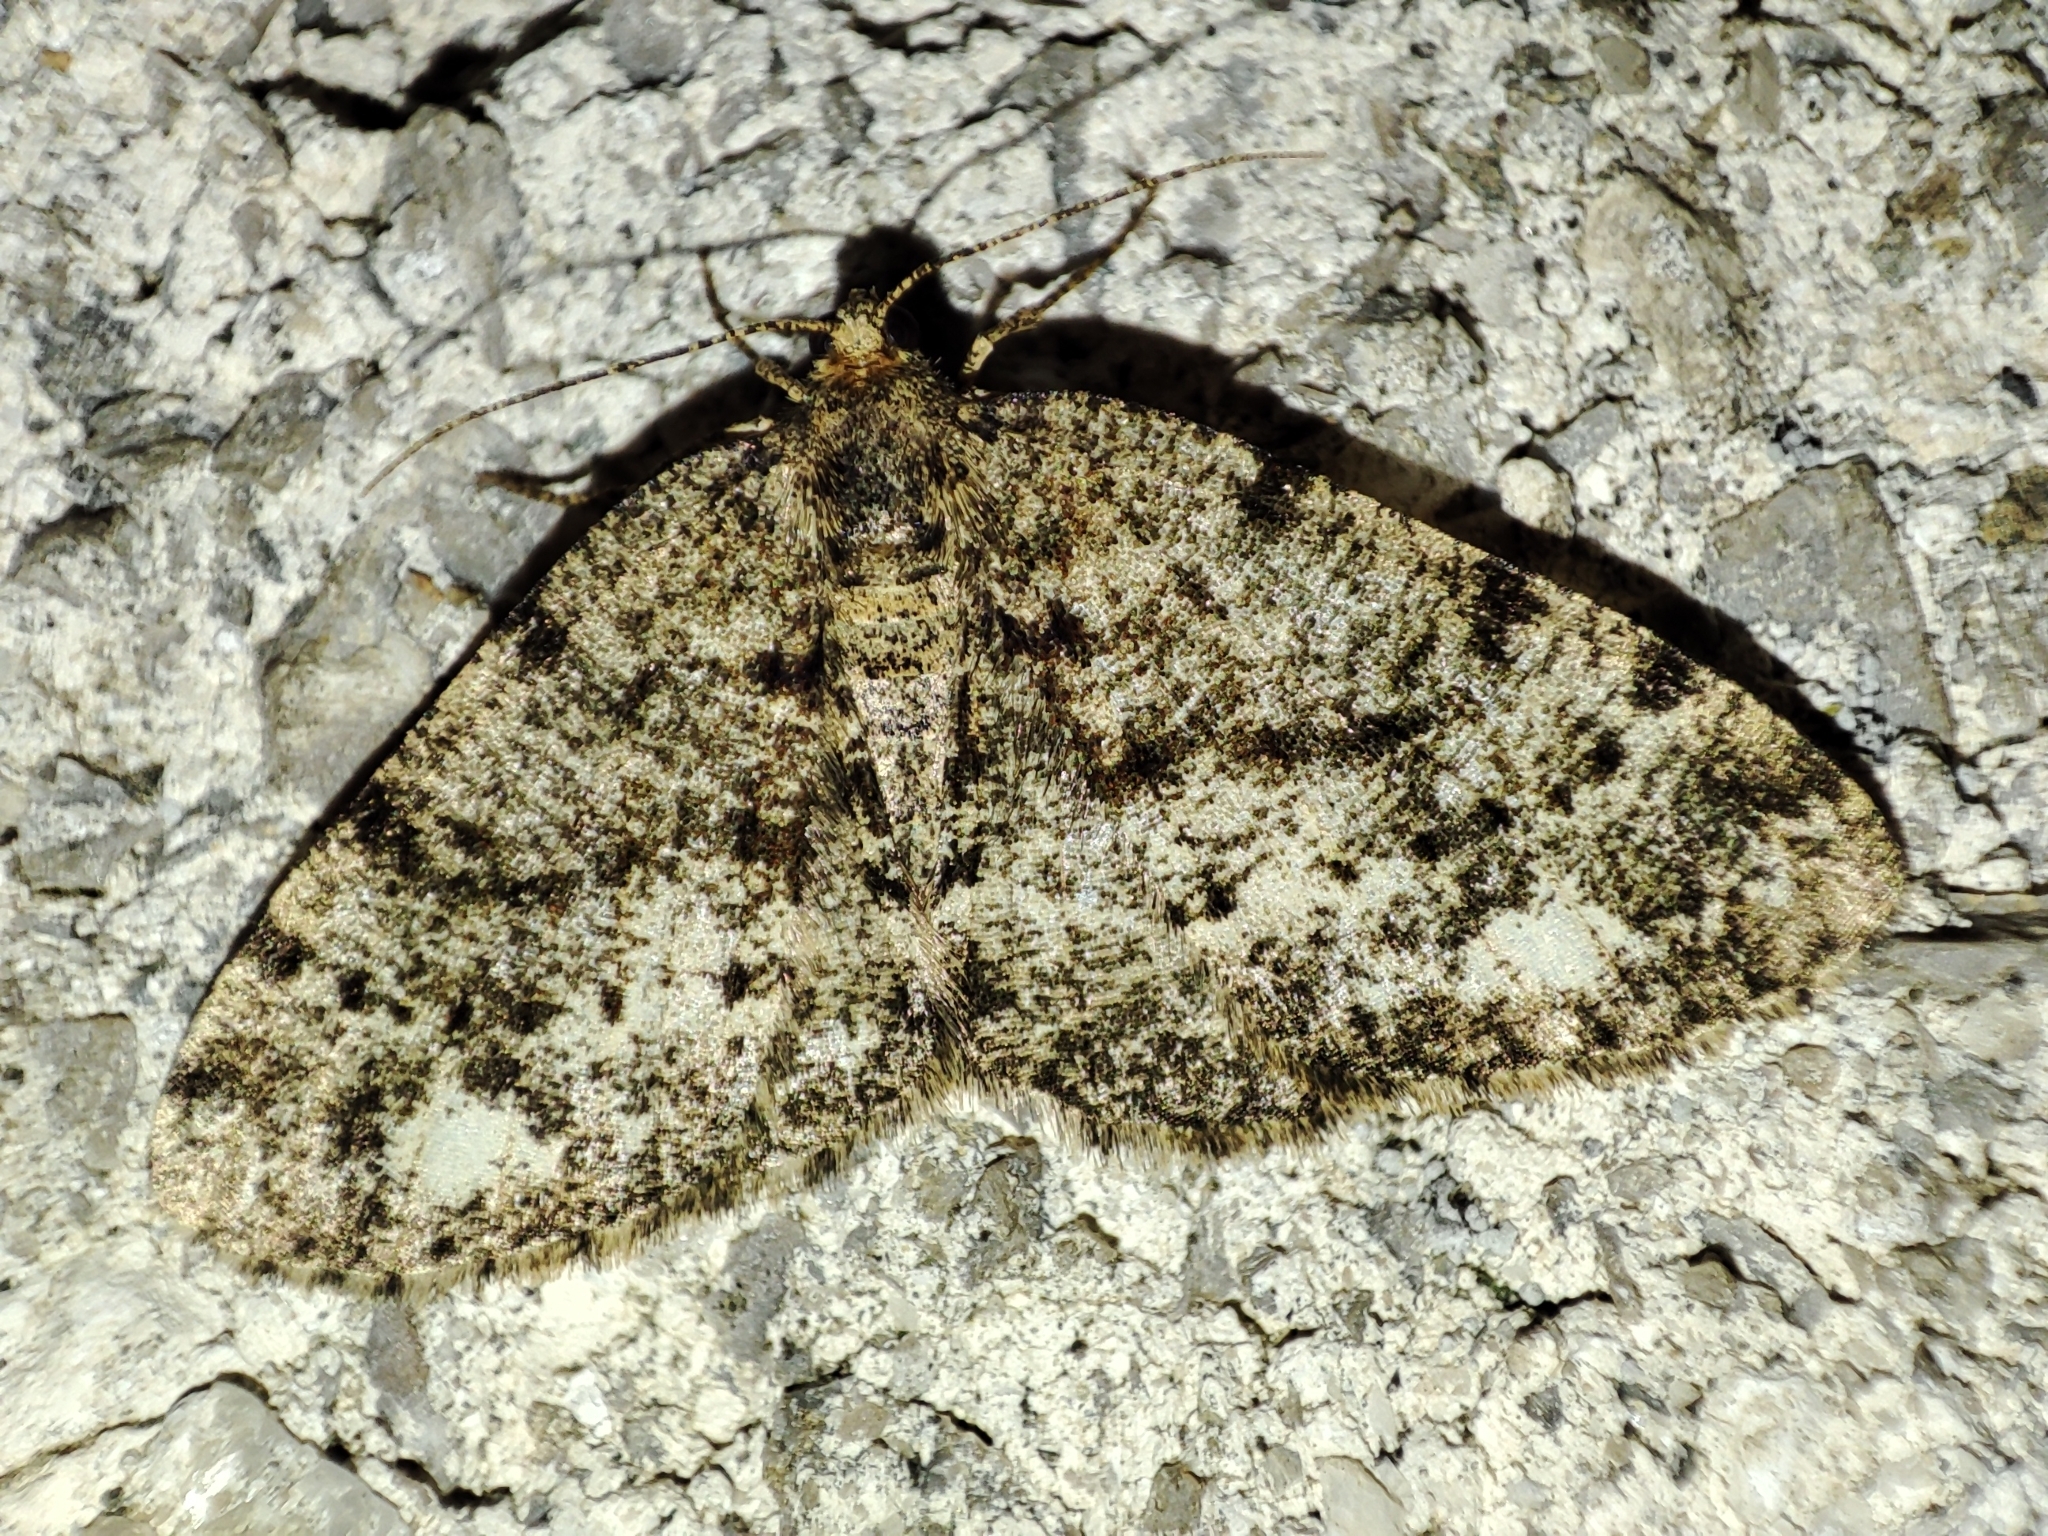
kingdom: Animalia
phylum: Arthropoda
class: Insecta
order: Lepidoptera
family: Geometridae
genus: Parectropis
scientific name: Parectropis similaria
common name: Brindled white-spot
